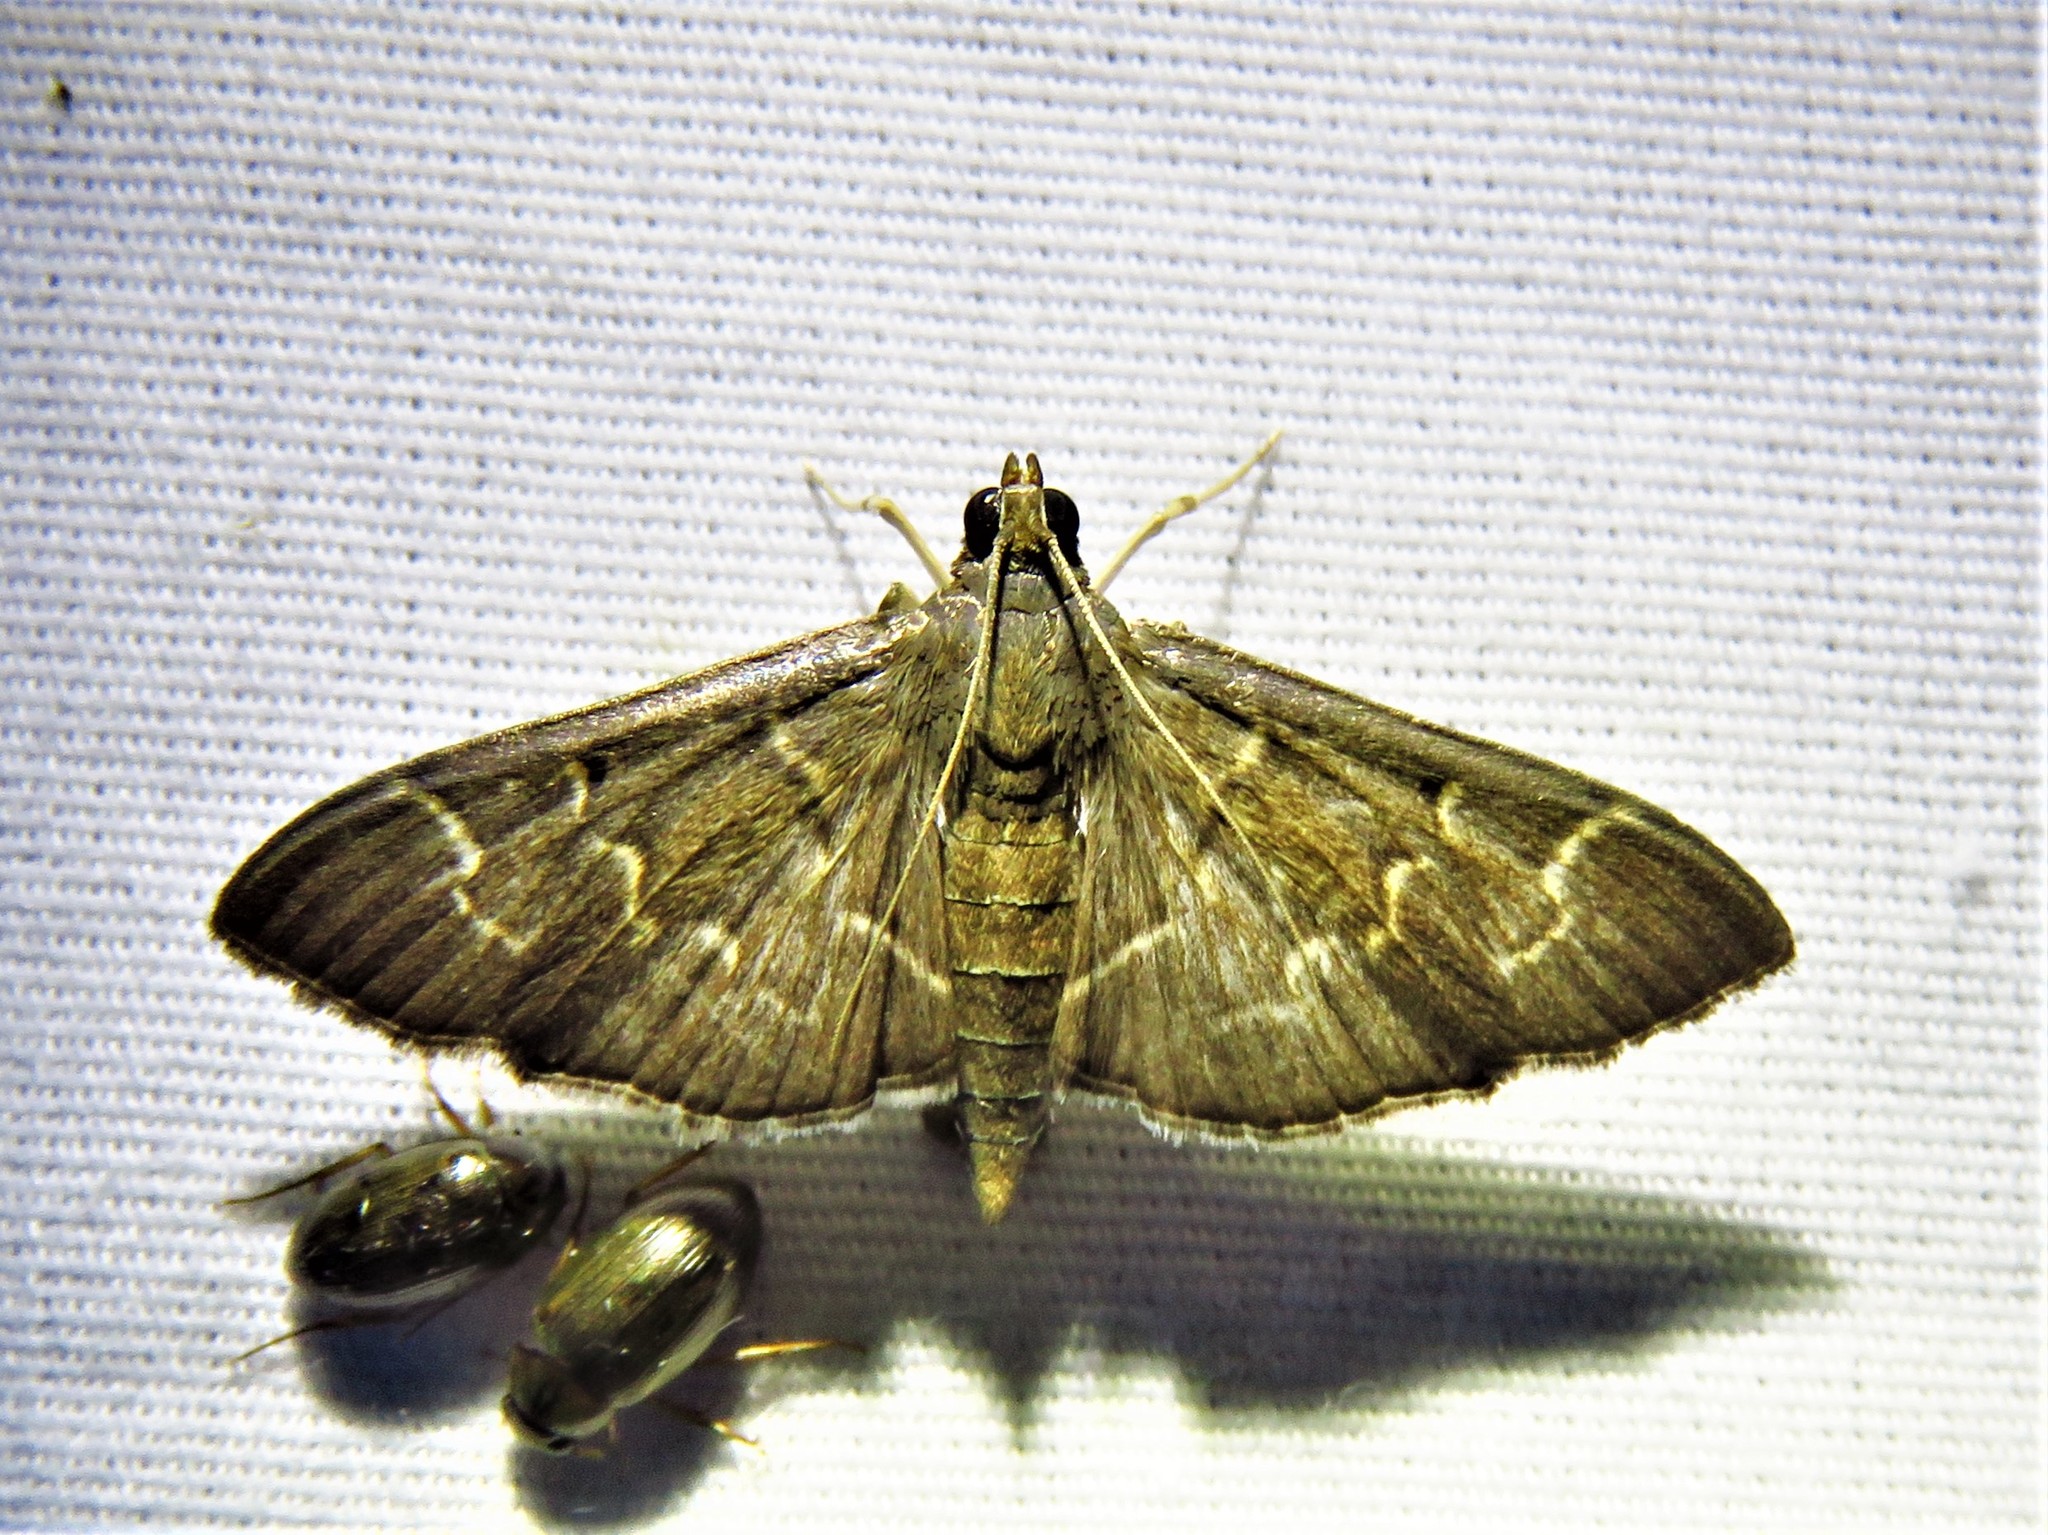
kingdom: Animalia
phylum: Arthropoda
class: Insecta
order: Lepidoptera
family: Crambidae
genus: Pilocrocis
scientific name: Pilocrocis ramentalis
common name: Scraped pilocrocis
